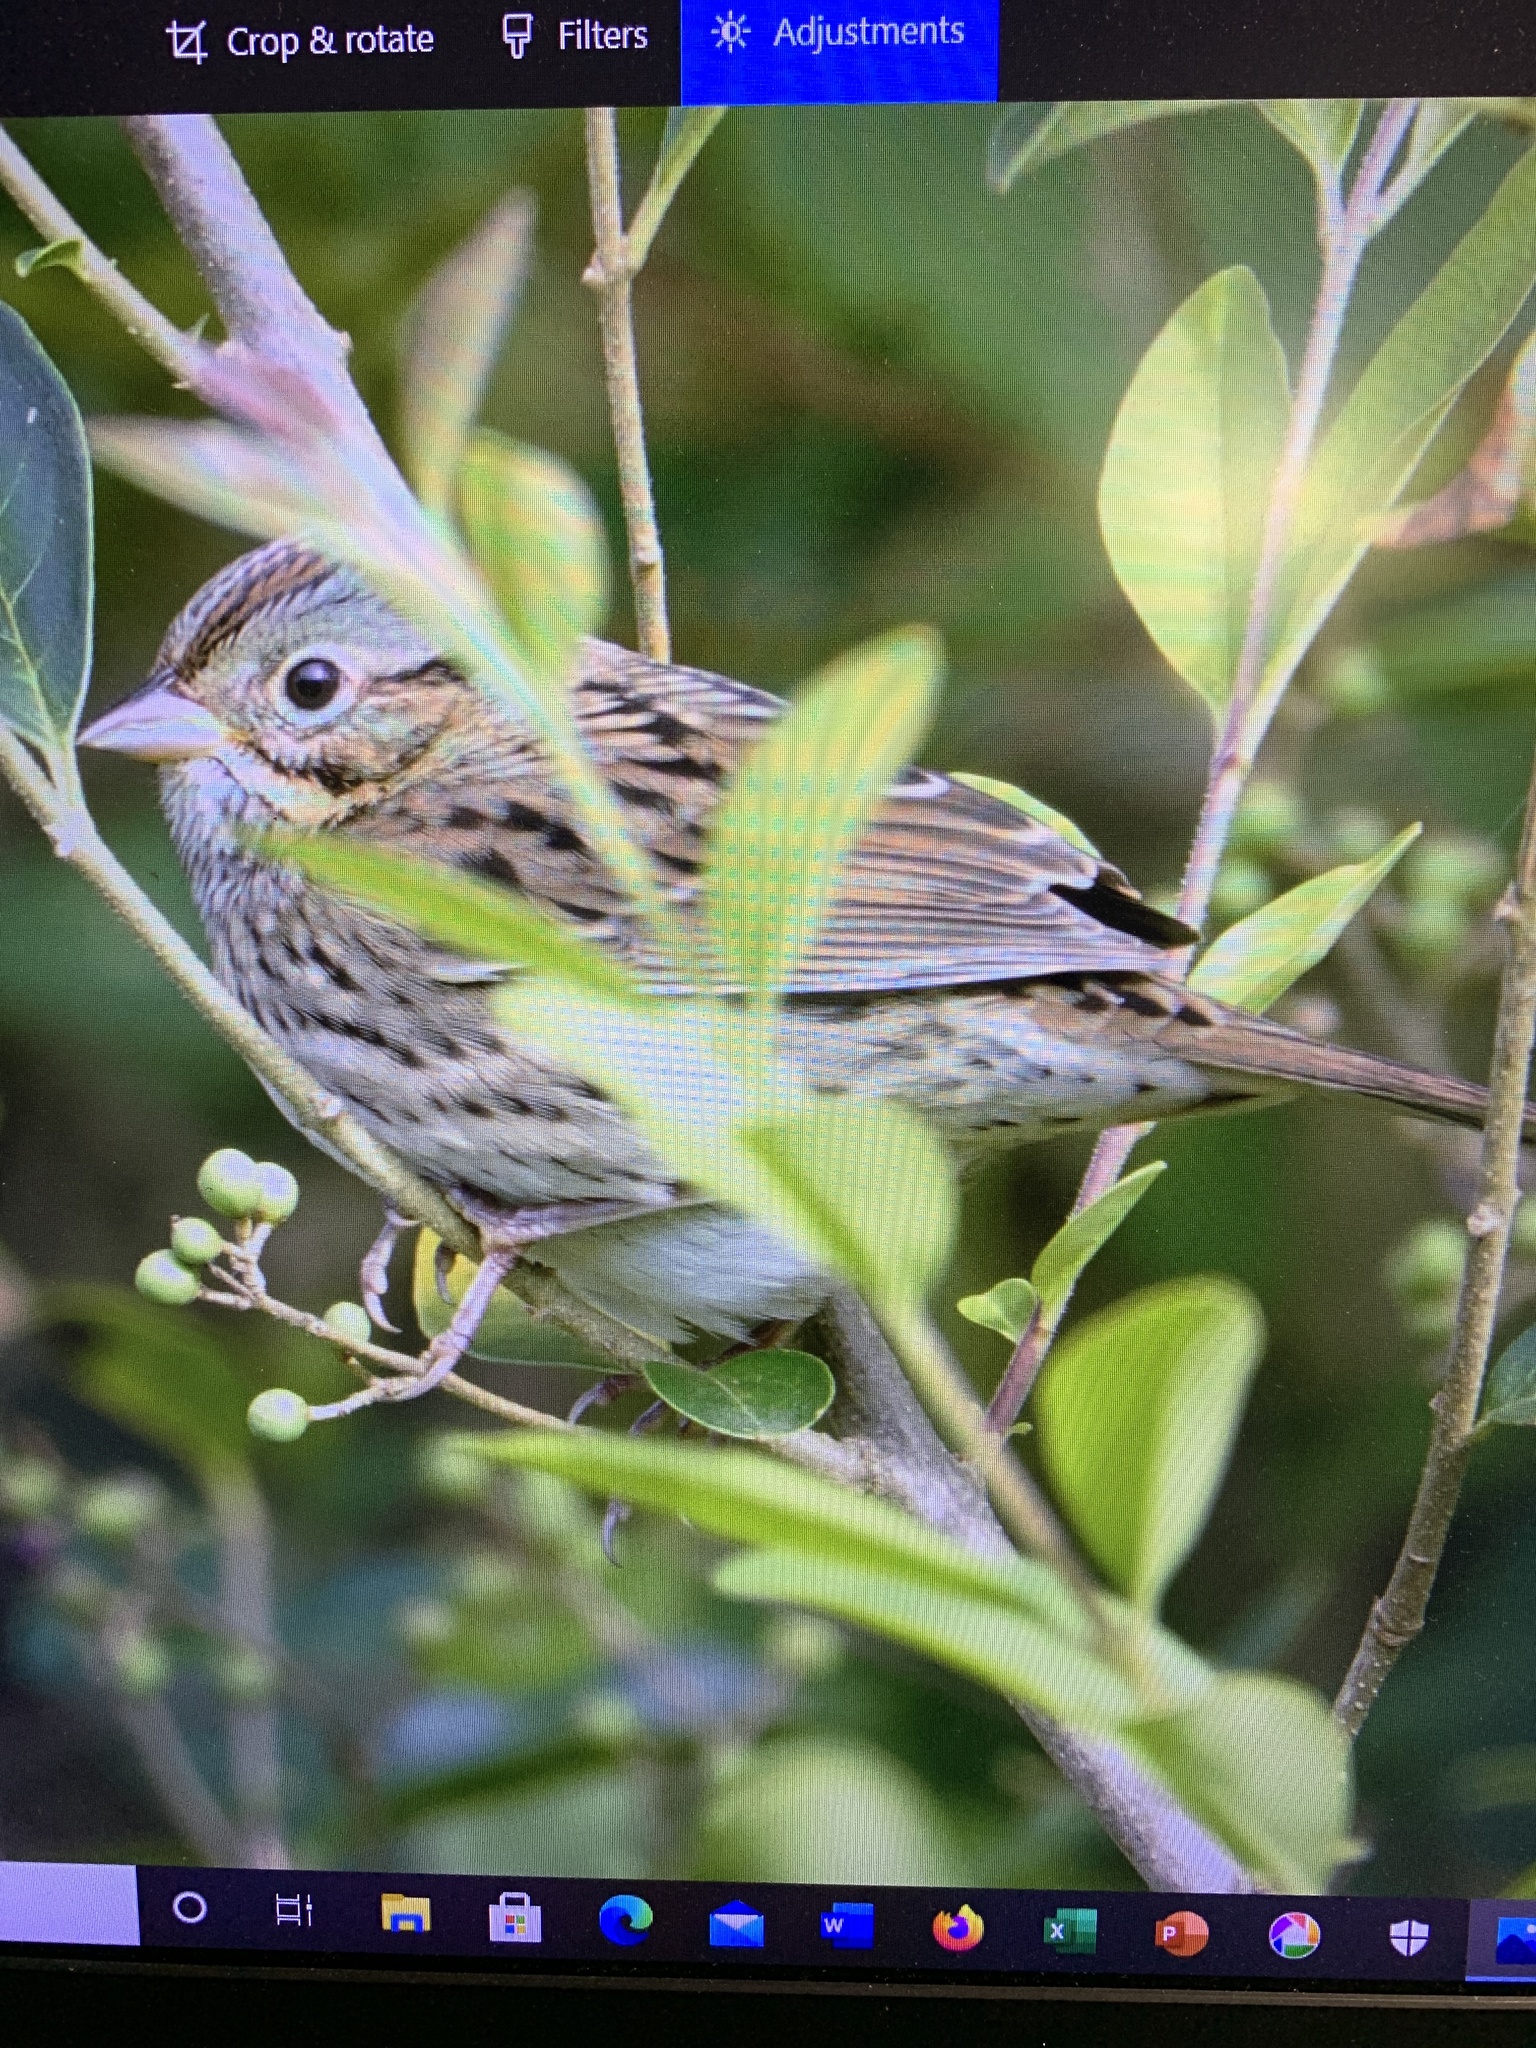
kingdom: Animalia
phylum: Chordata
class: Aves
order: Passeriformes
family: Passerellidae
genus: Melospiza
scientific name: Melospiza lincolnii
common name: Lincoln's sparrow
